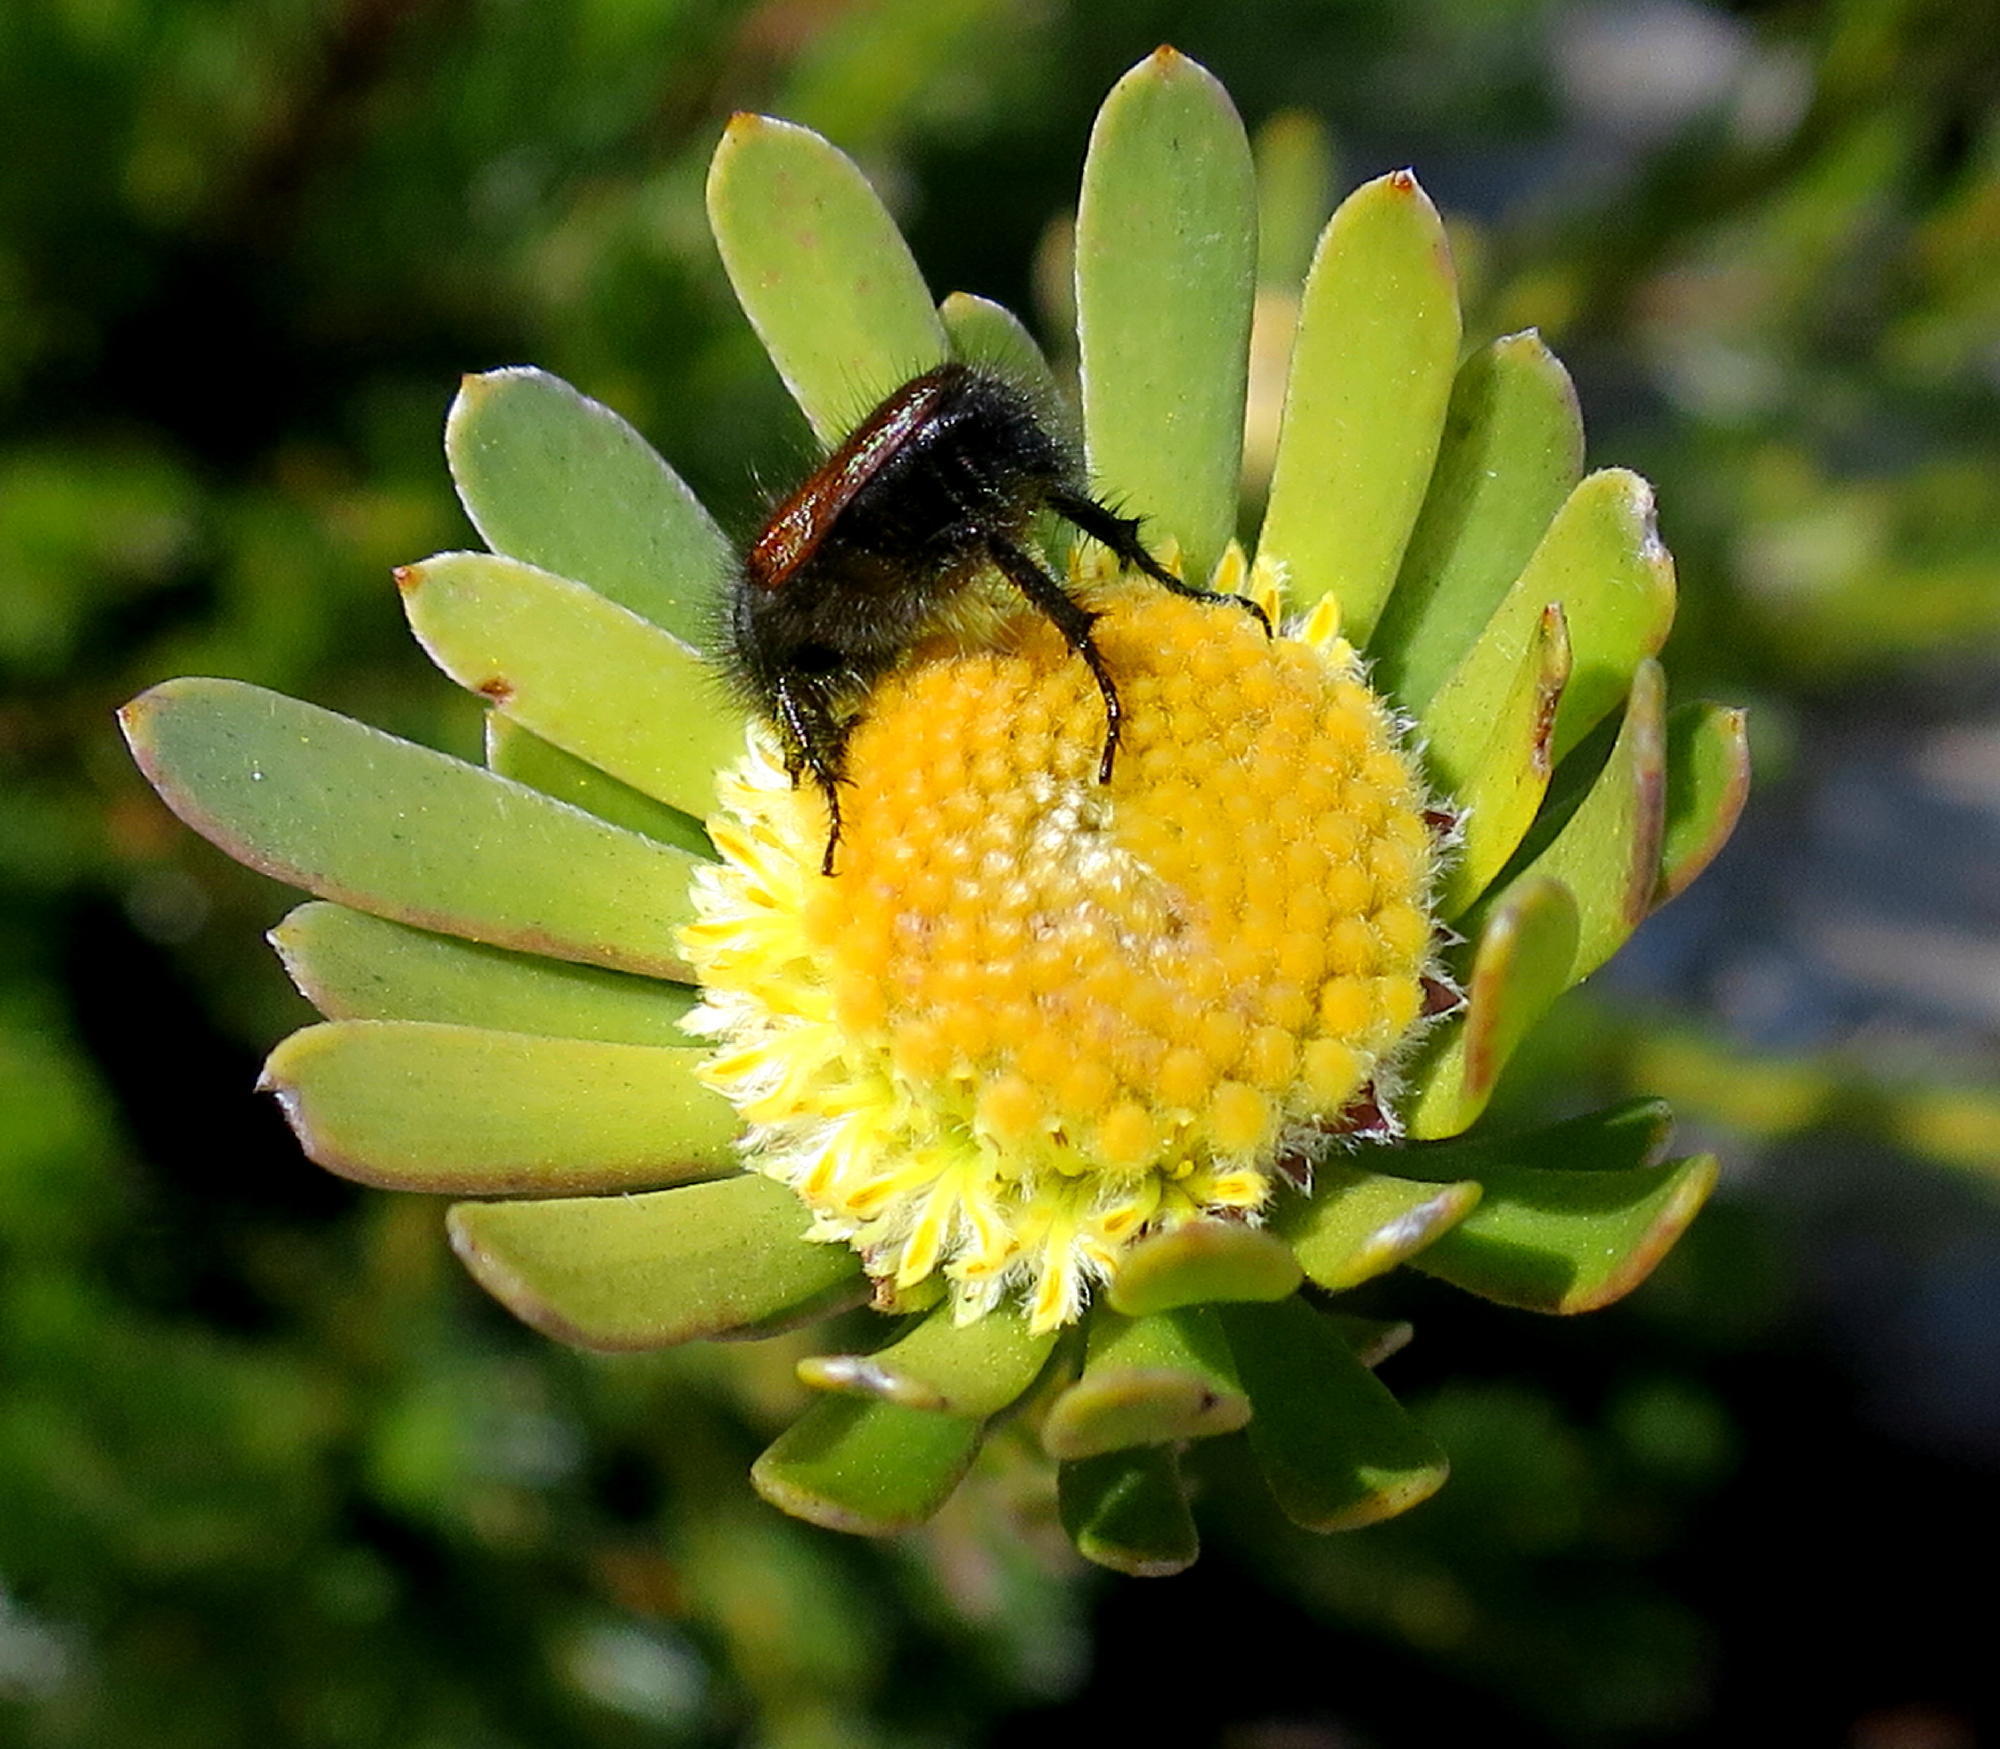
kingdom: Plantae
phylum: Tracheophyta
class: Magnoliopsida
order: Proteales
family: Proteaceae
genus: Leucadendron
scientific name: Leucadendron singulare
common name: Kammanassie conebush
